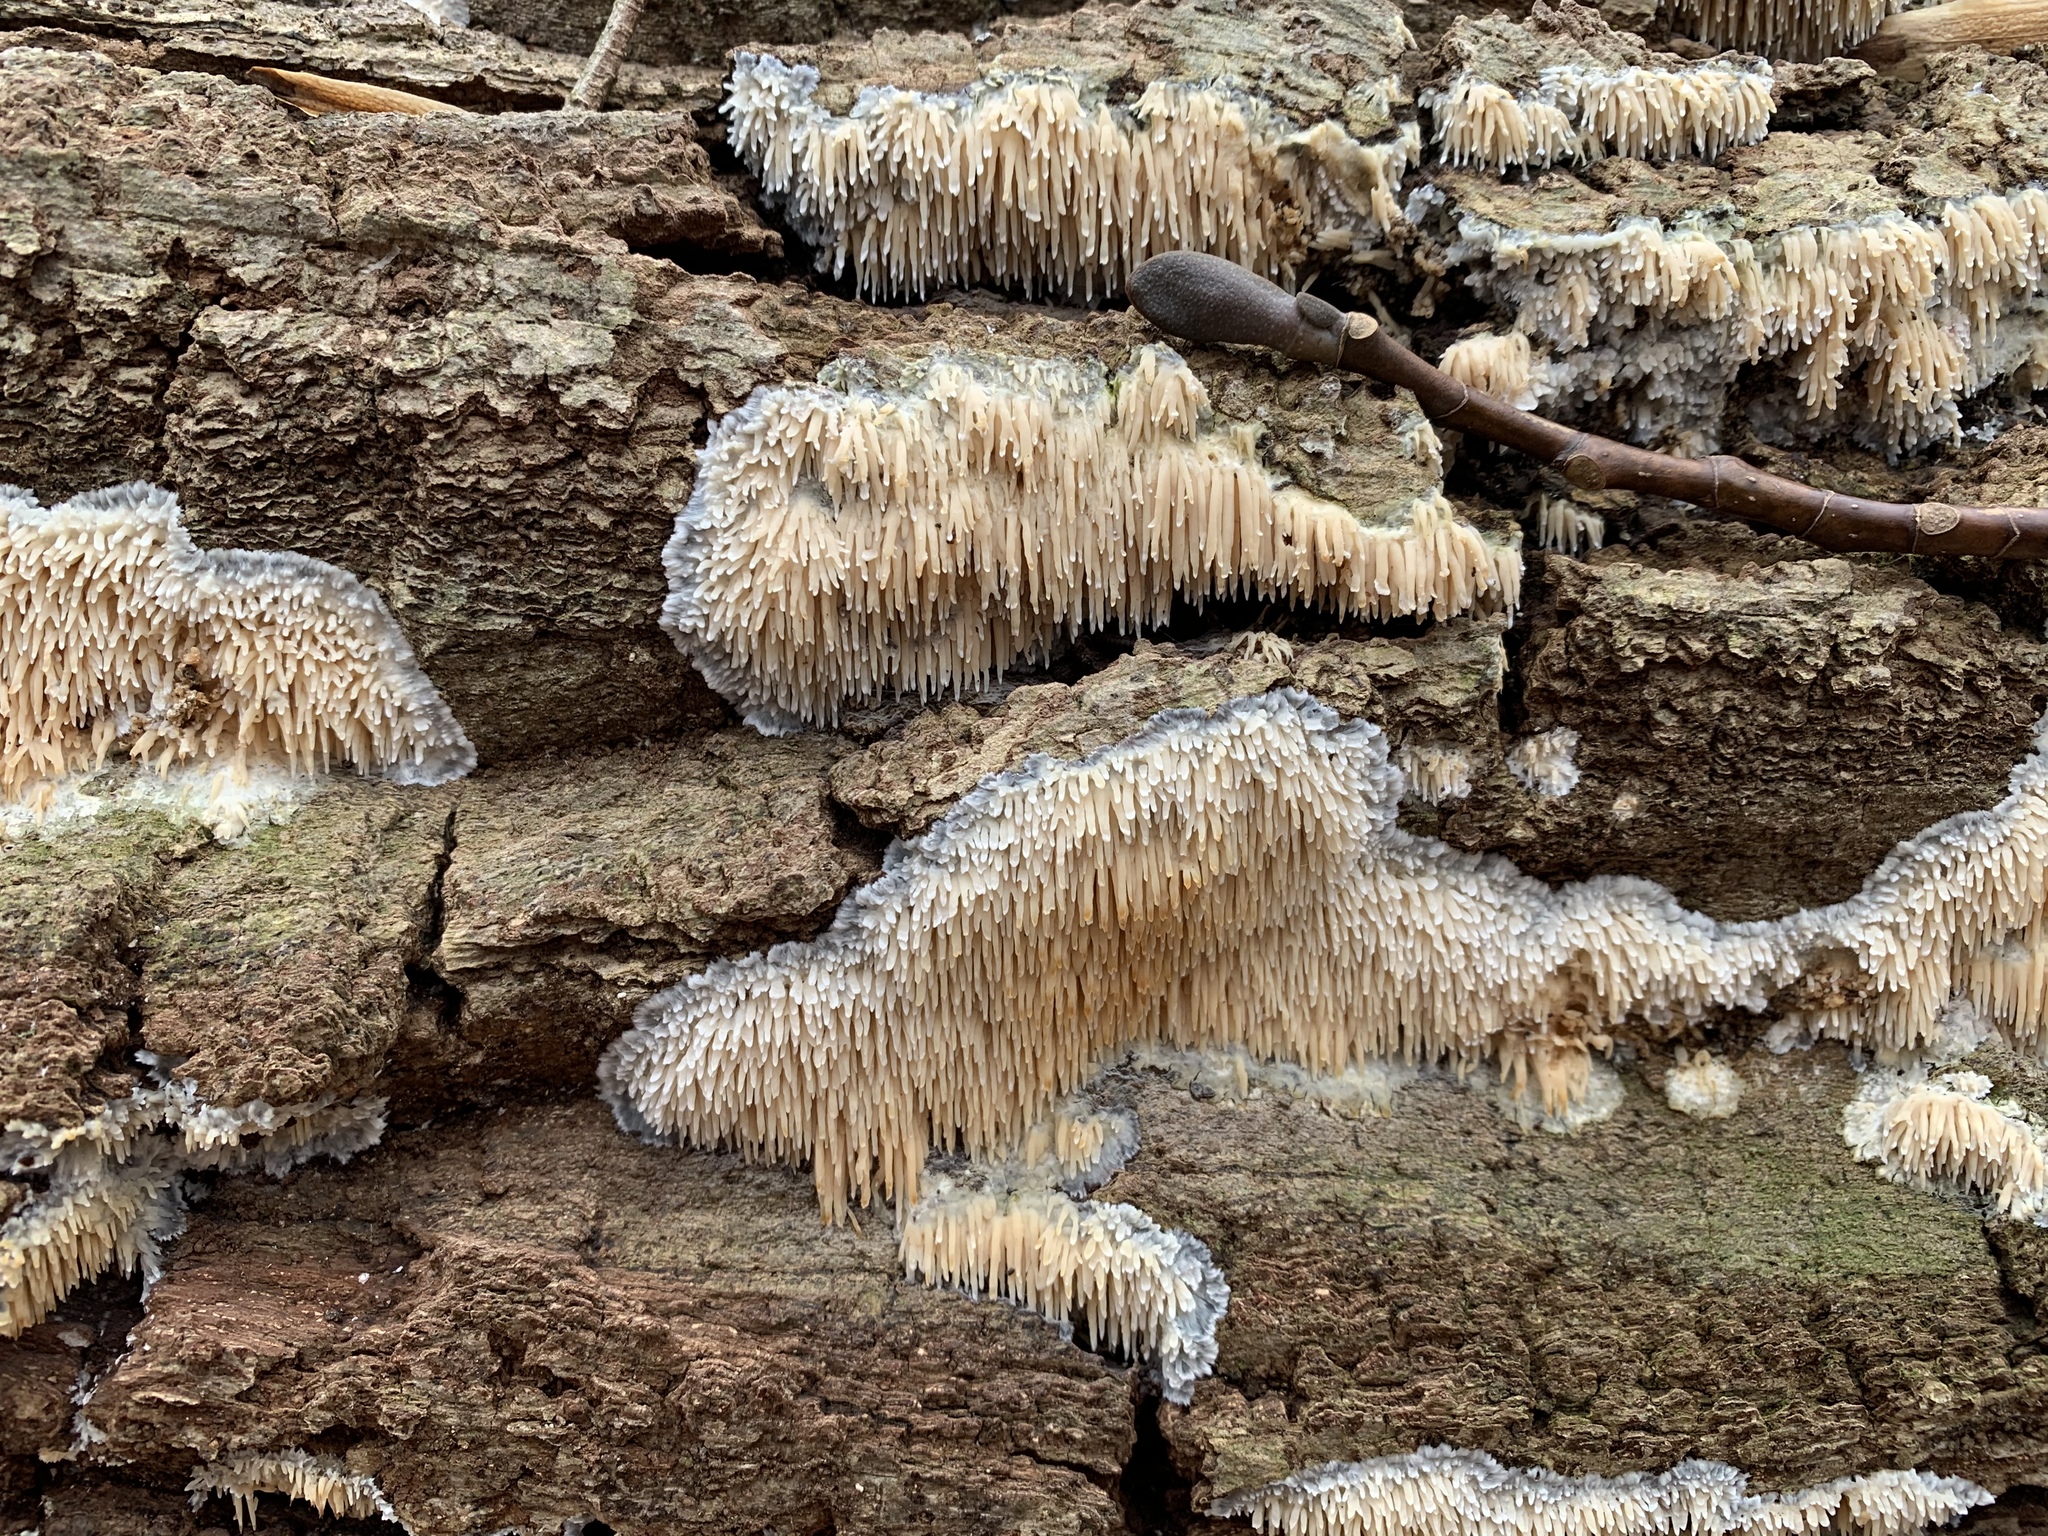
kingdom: Fungi
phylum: Basidiomycota
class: Agaricomycetes
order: Agaricales
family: Radulomycetaceae
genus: Radulomyces
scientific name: Radulomyces copelandii
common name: Asian beauty
